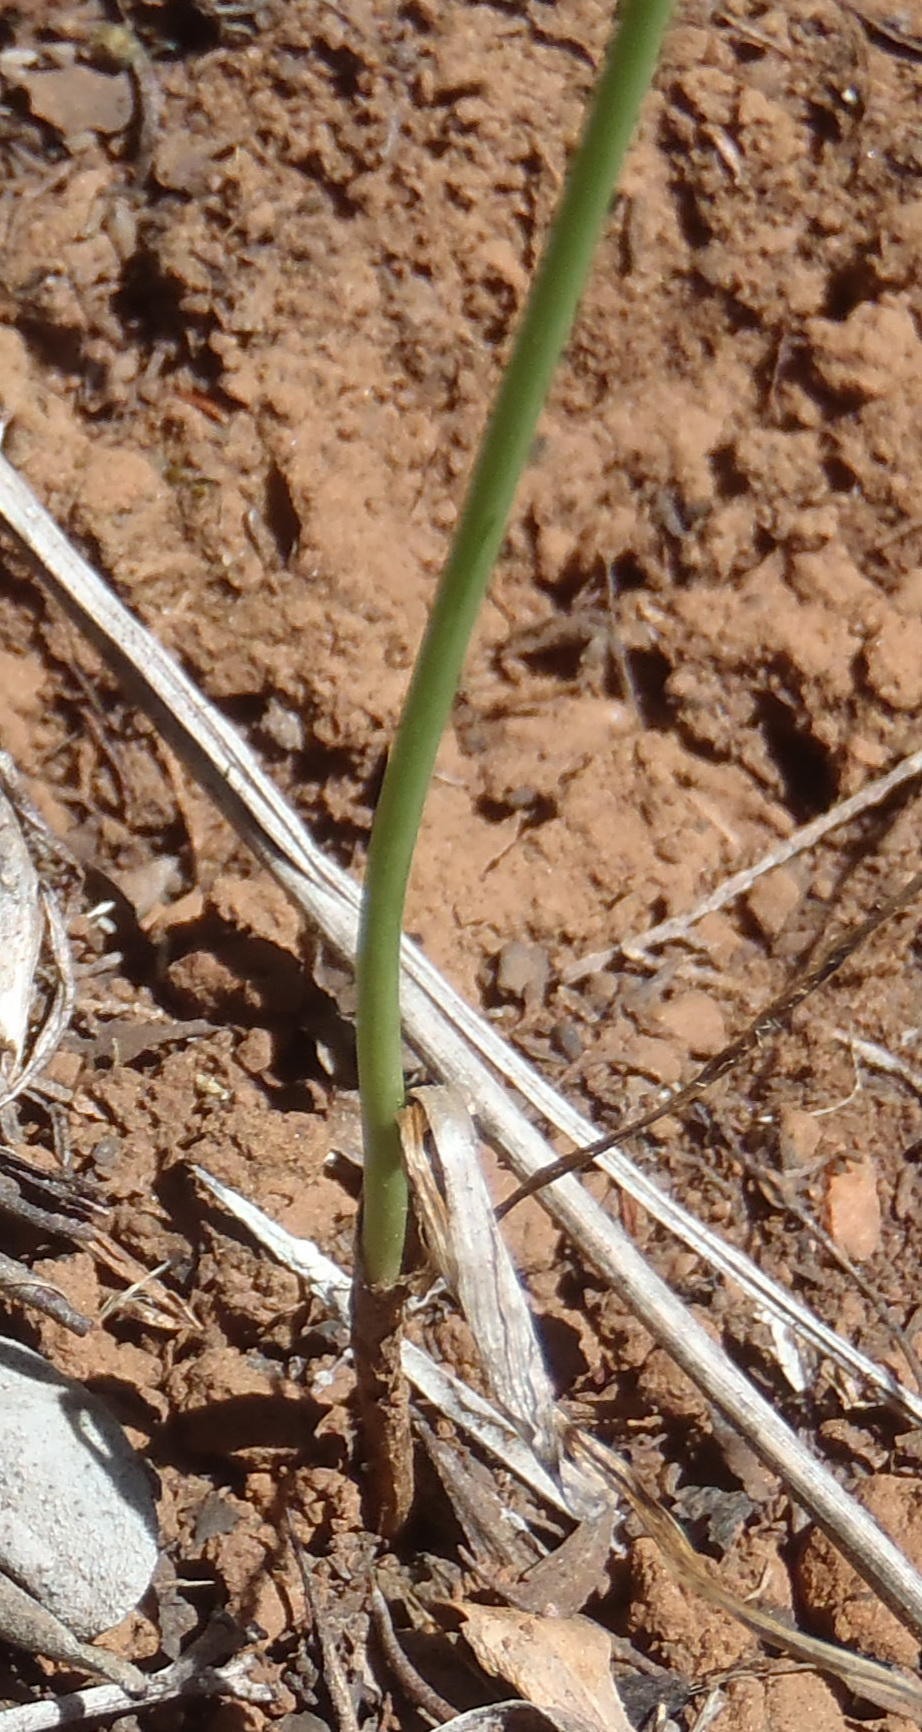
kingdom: Plantae
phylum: Tracheophyta
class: Liliopsida
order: Asparagales
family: Asparagaceae
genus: Ornithogalum
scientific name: Ornithogalum graminifolium
